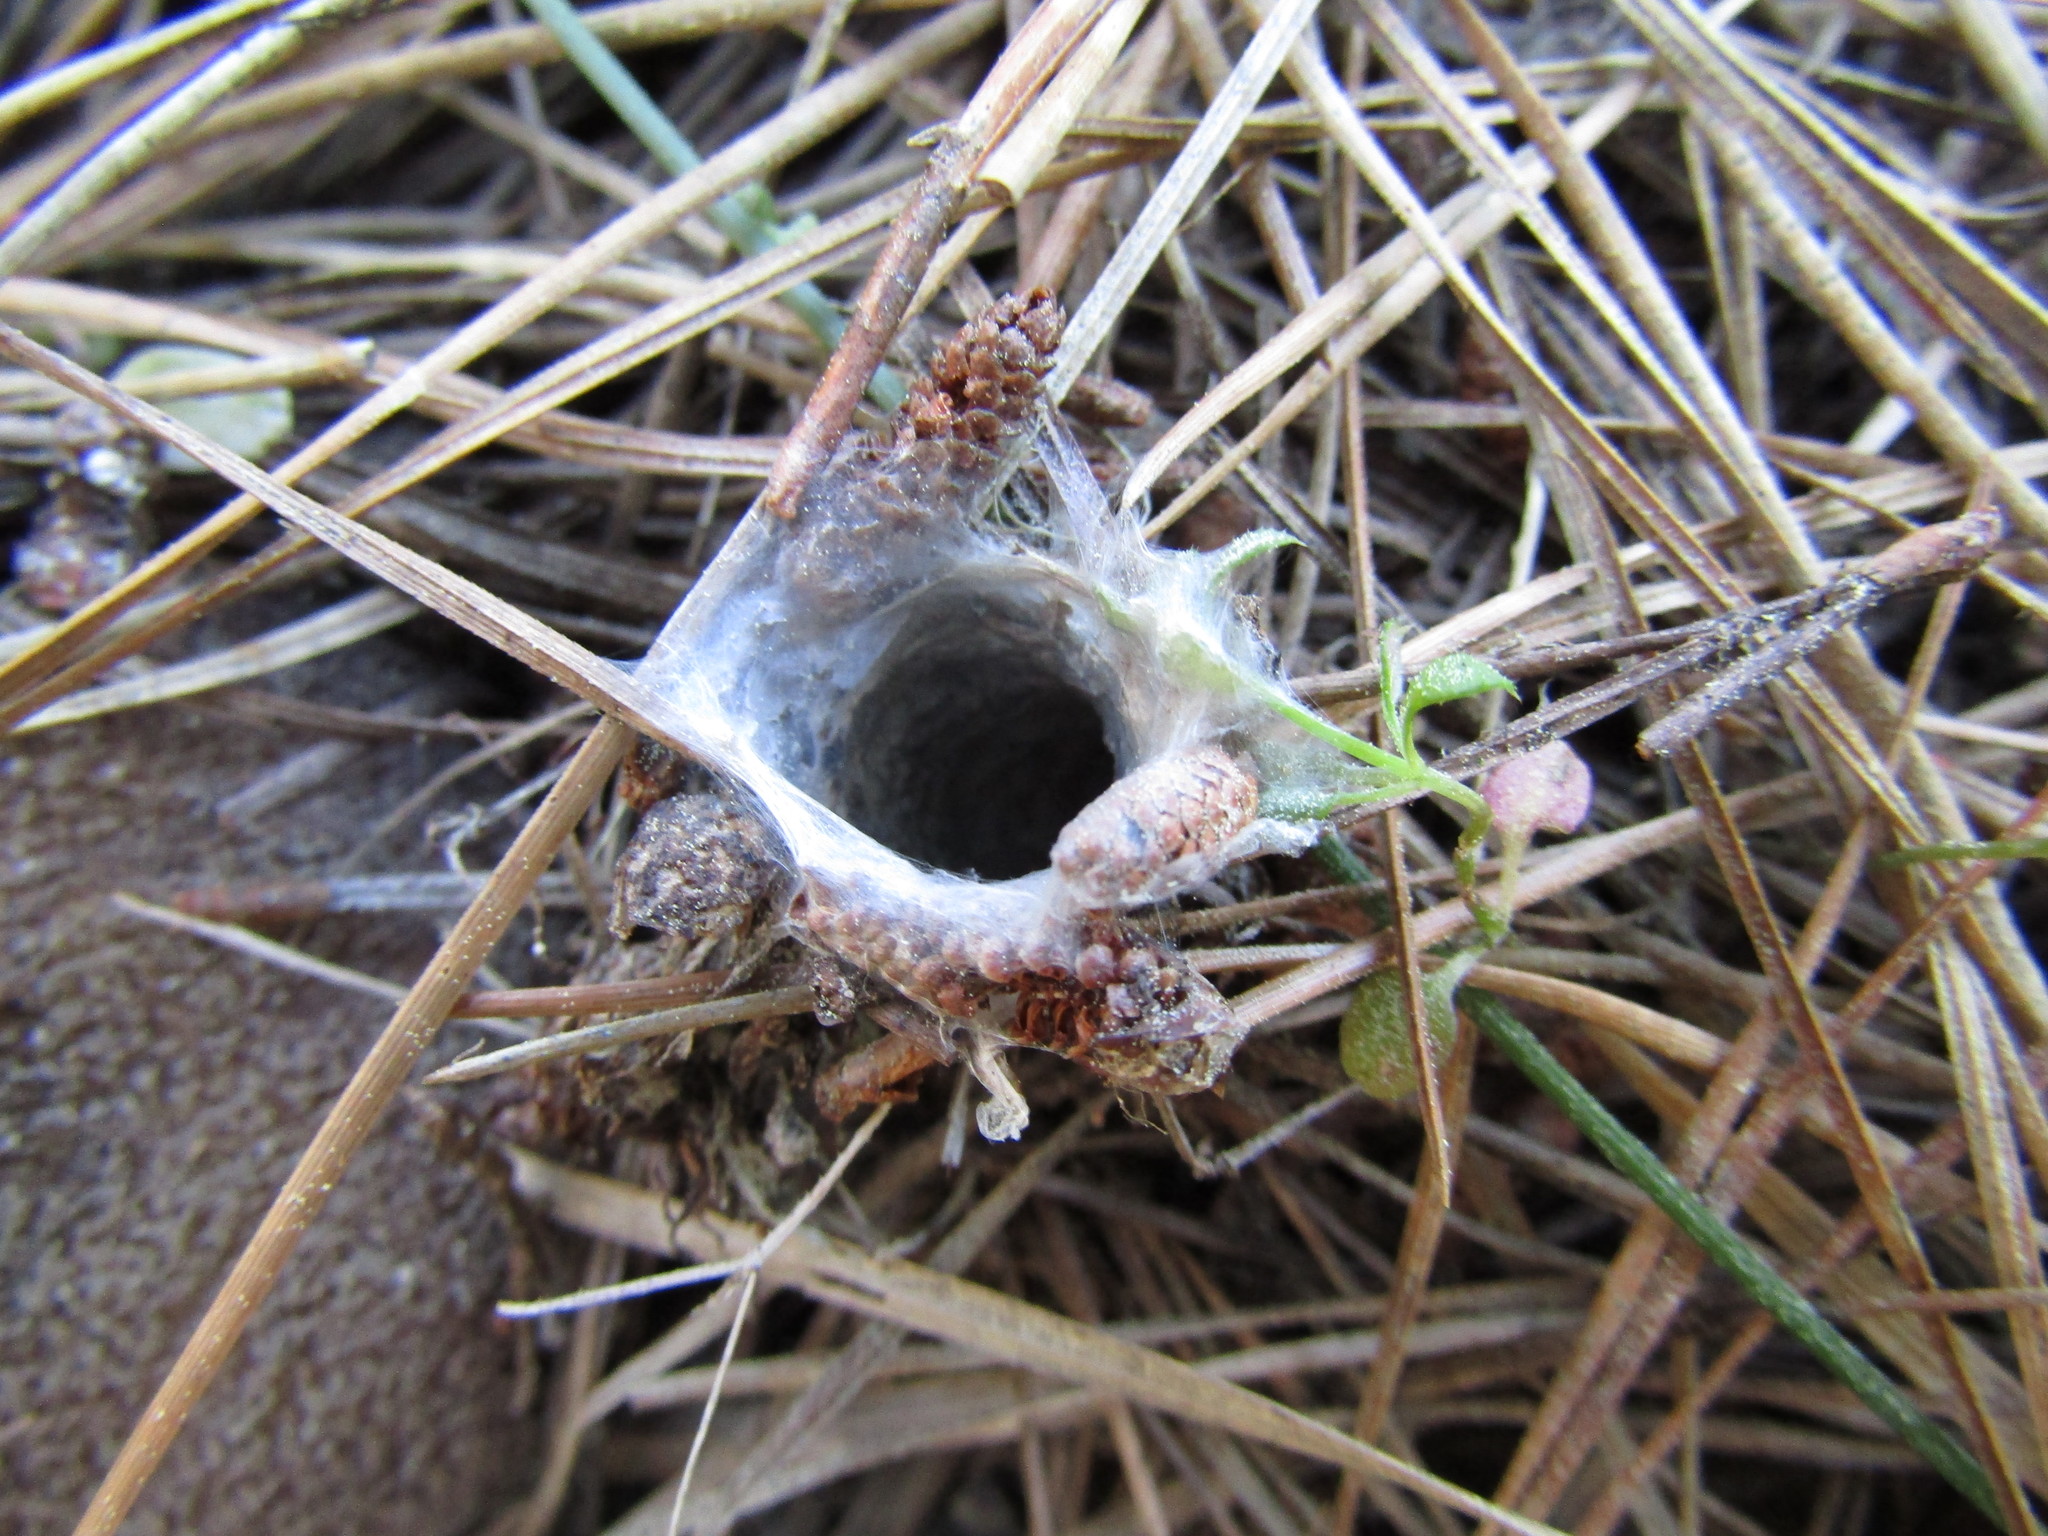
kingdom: Animalia
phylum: Arthropoda
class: Arachnida
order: Araneae
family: Antrodiaetidae
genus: Atypoides
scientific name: Atypoides riversi
